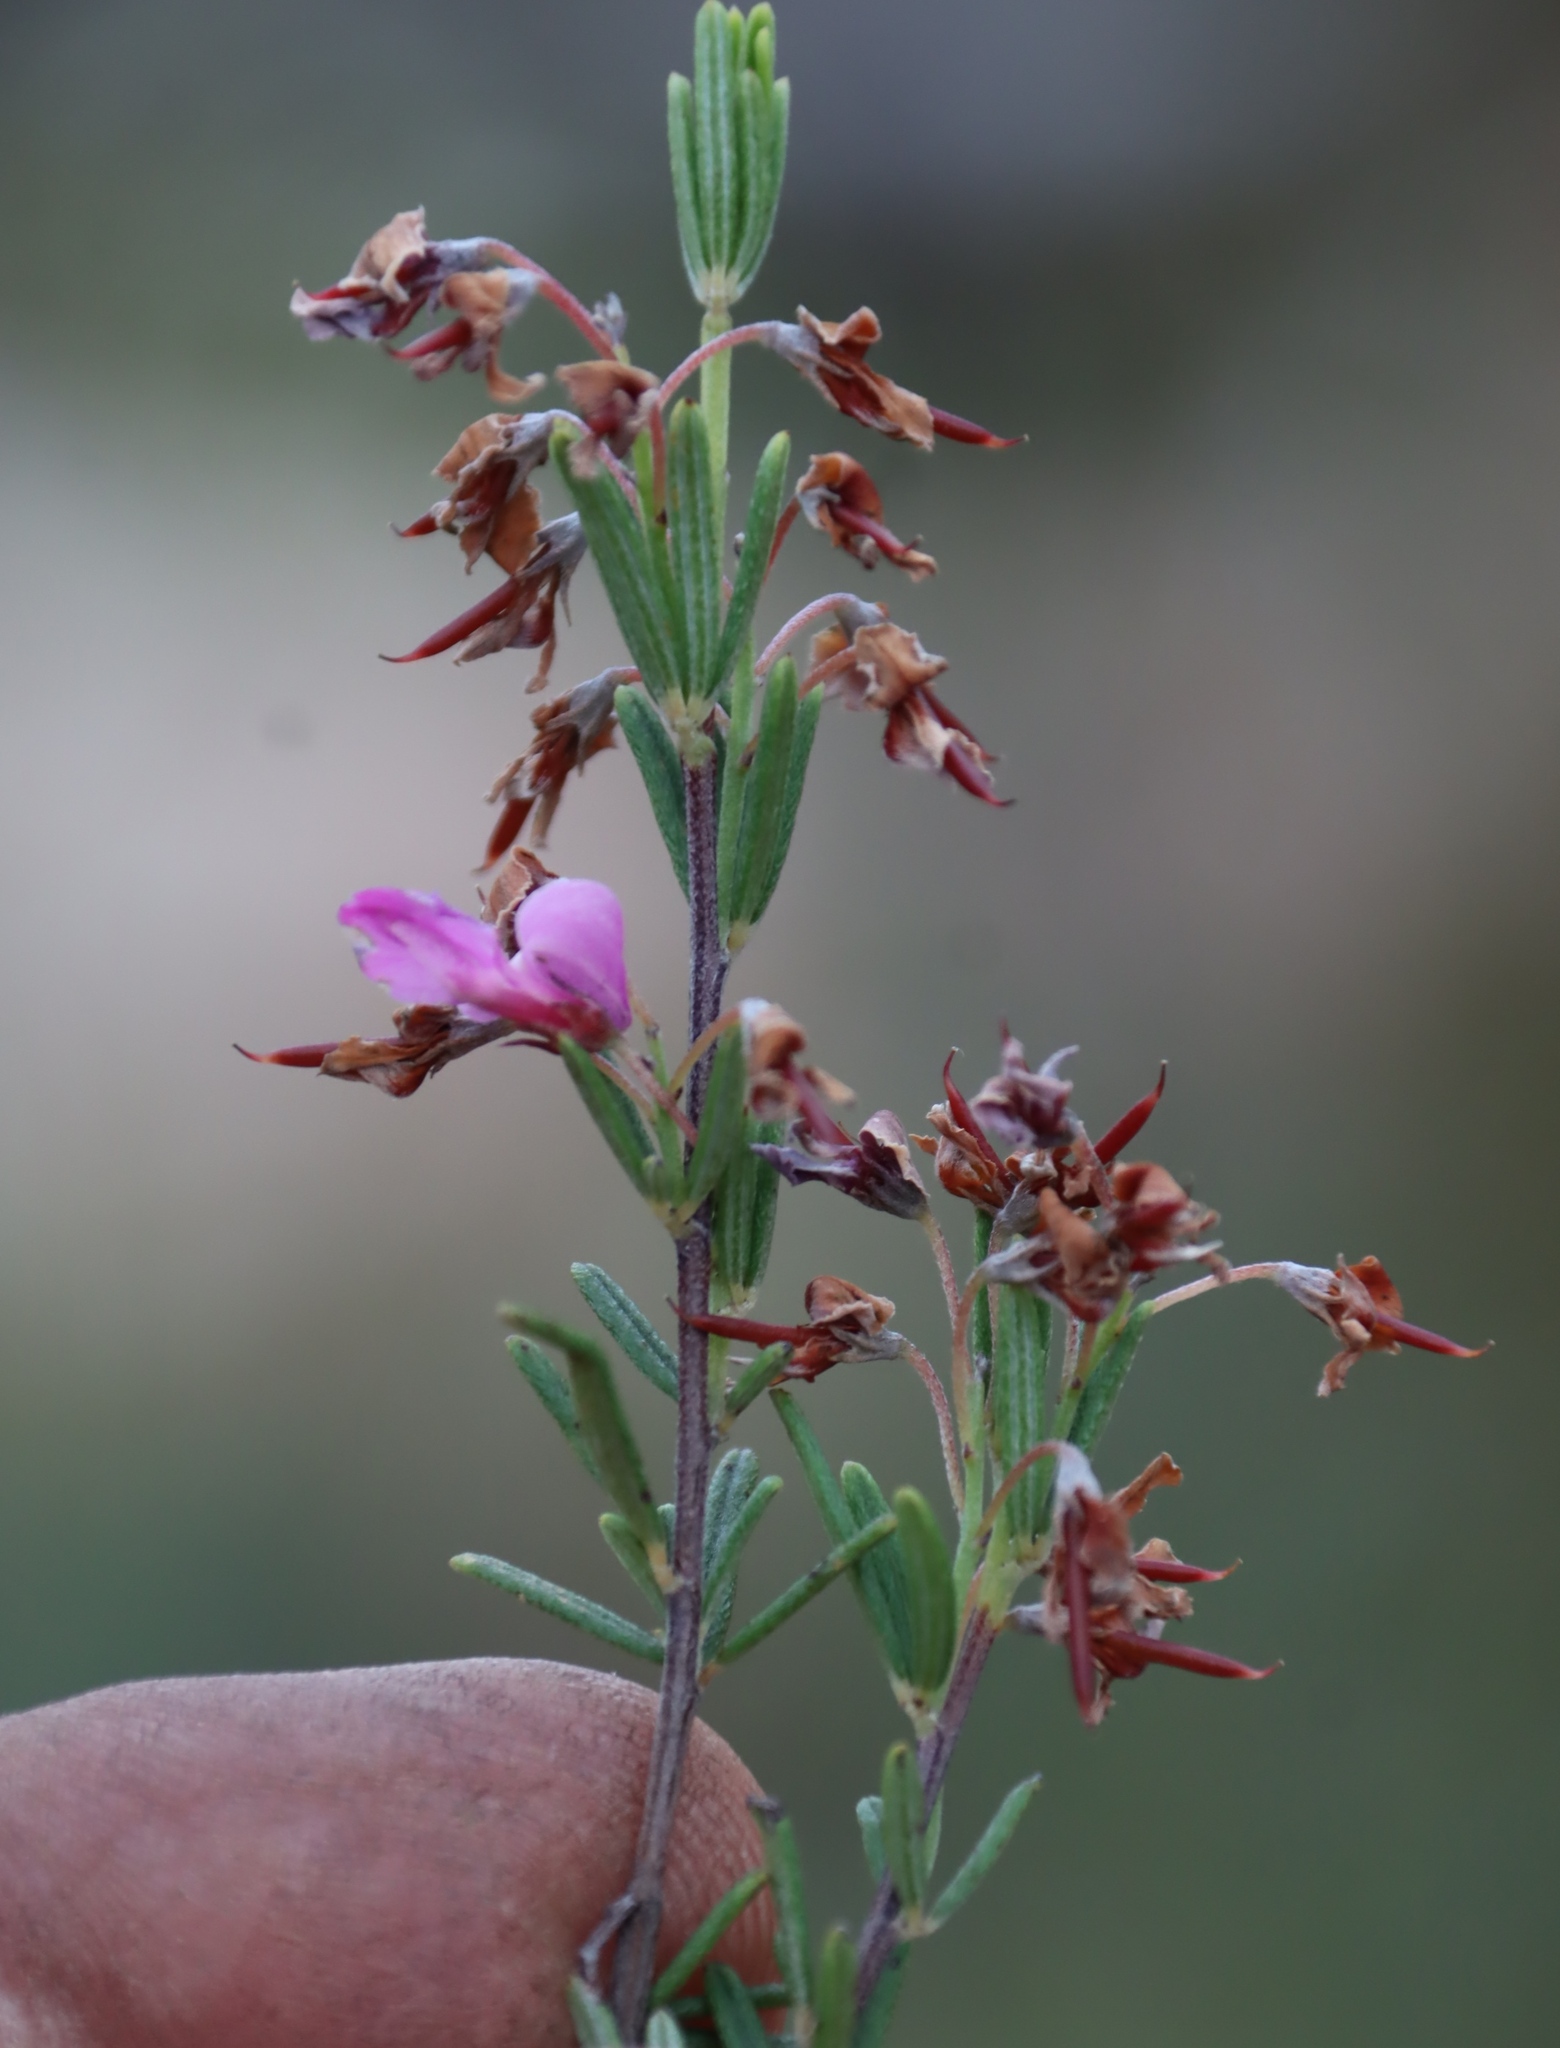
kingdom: Plantae
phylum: Tracheophyta
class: Magnoliopsida
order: Fabales
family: Fabaceae
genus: Indigofera
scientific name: Indigofera sulcata
